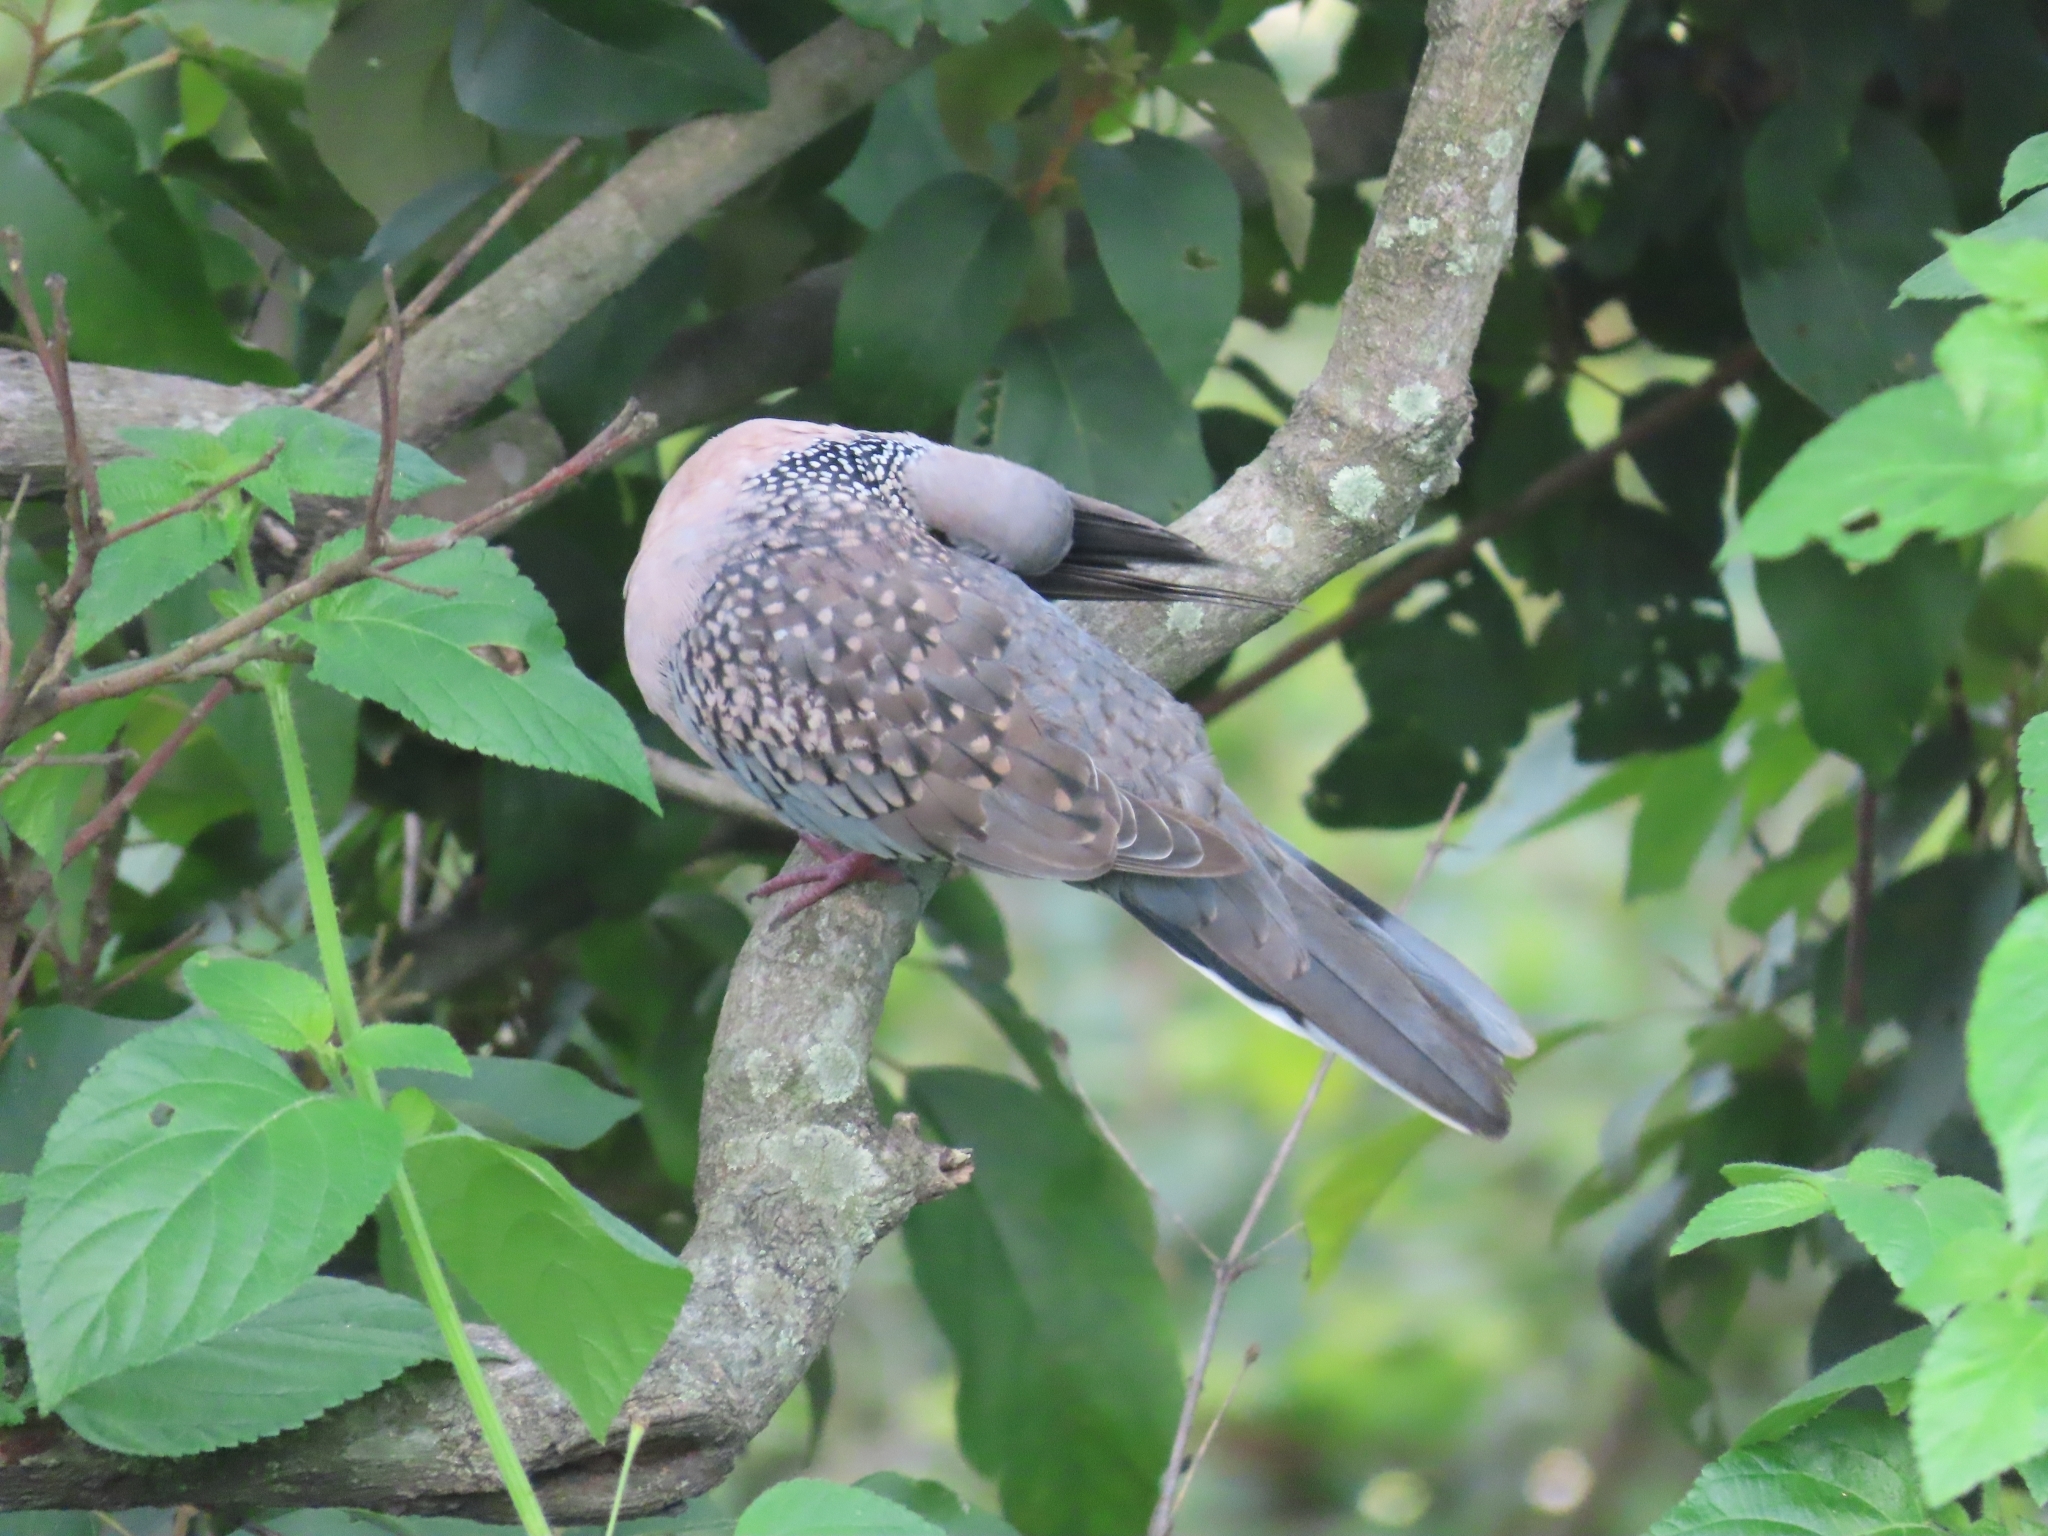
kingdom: Animalia
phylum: Chordata
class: Aves
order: Columbiformes
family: Columbidae
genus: Spilopelia
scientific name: Spilopelia chinensis
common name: Spotted dove
